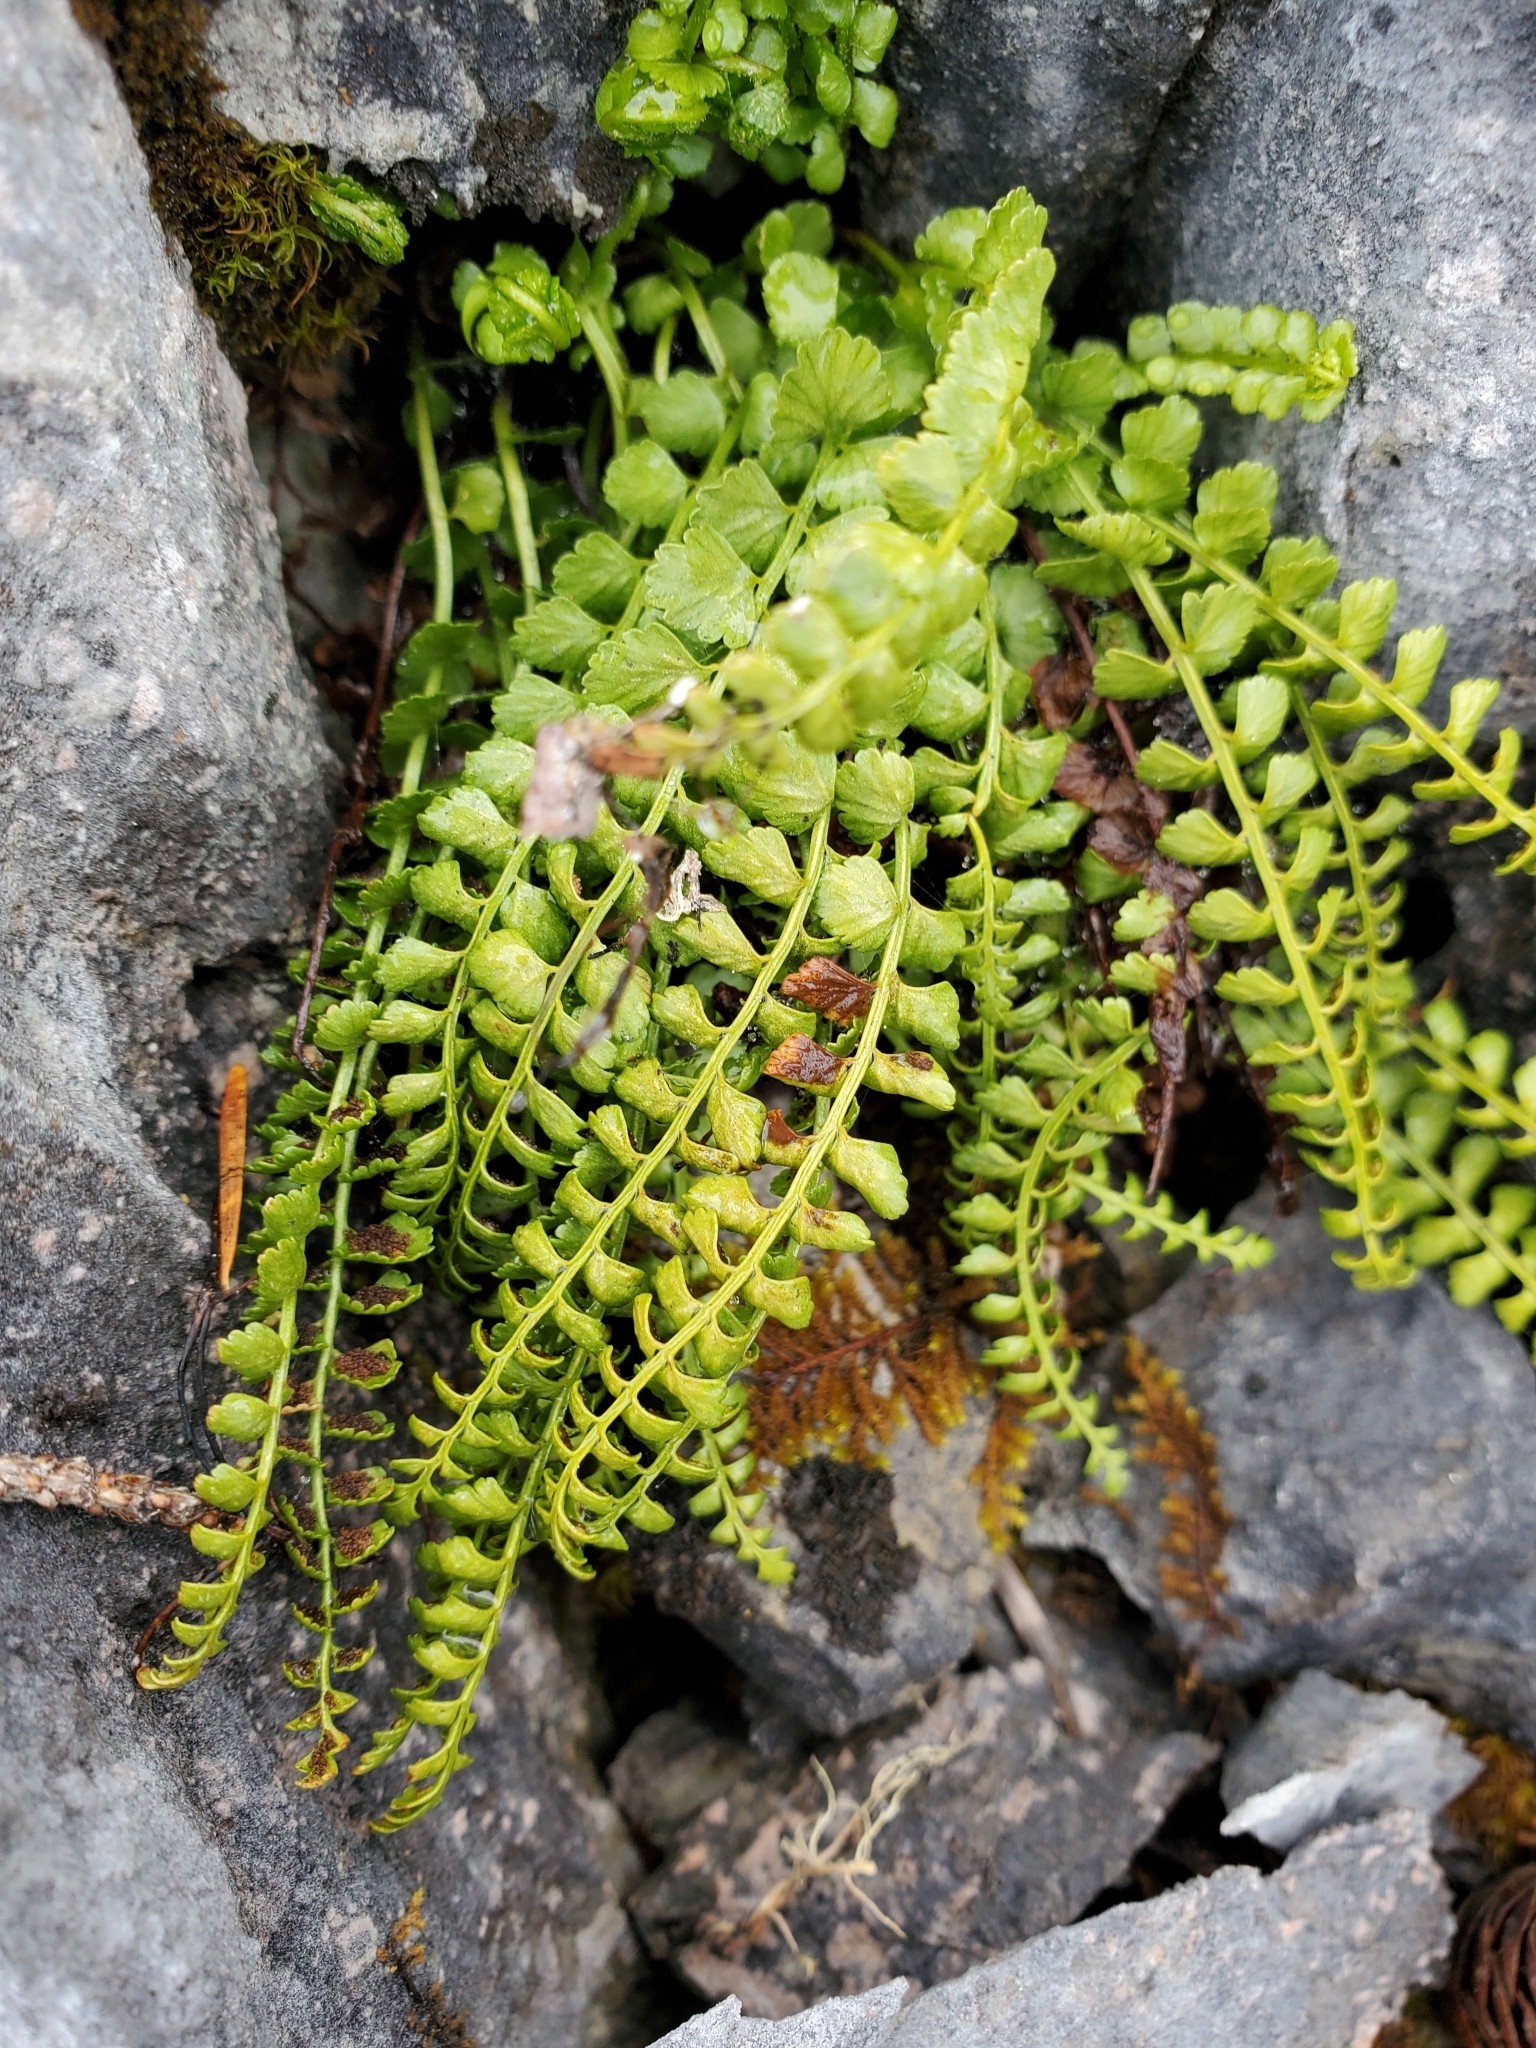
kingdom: Plantae
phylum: Tracheophyta
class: Polypodiopsida
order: Polypodiales
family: Aspleniaceae
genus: Asplenium
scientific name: Asplenium viride
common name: Green spleenwort
